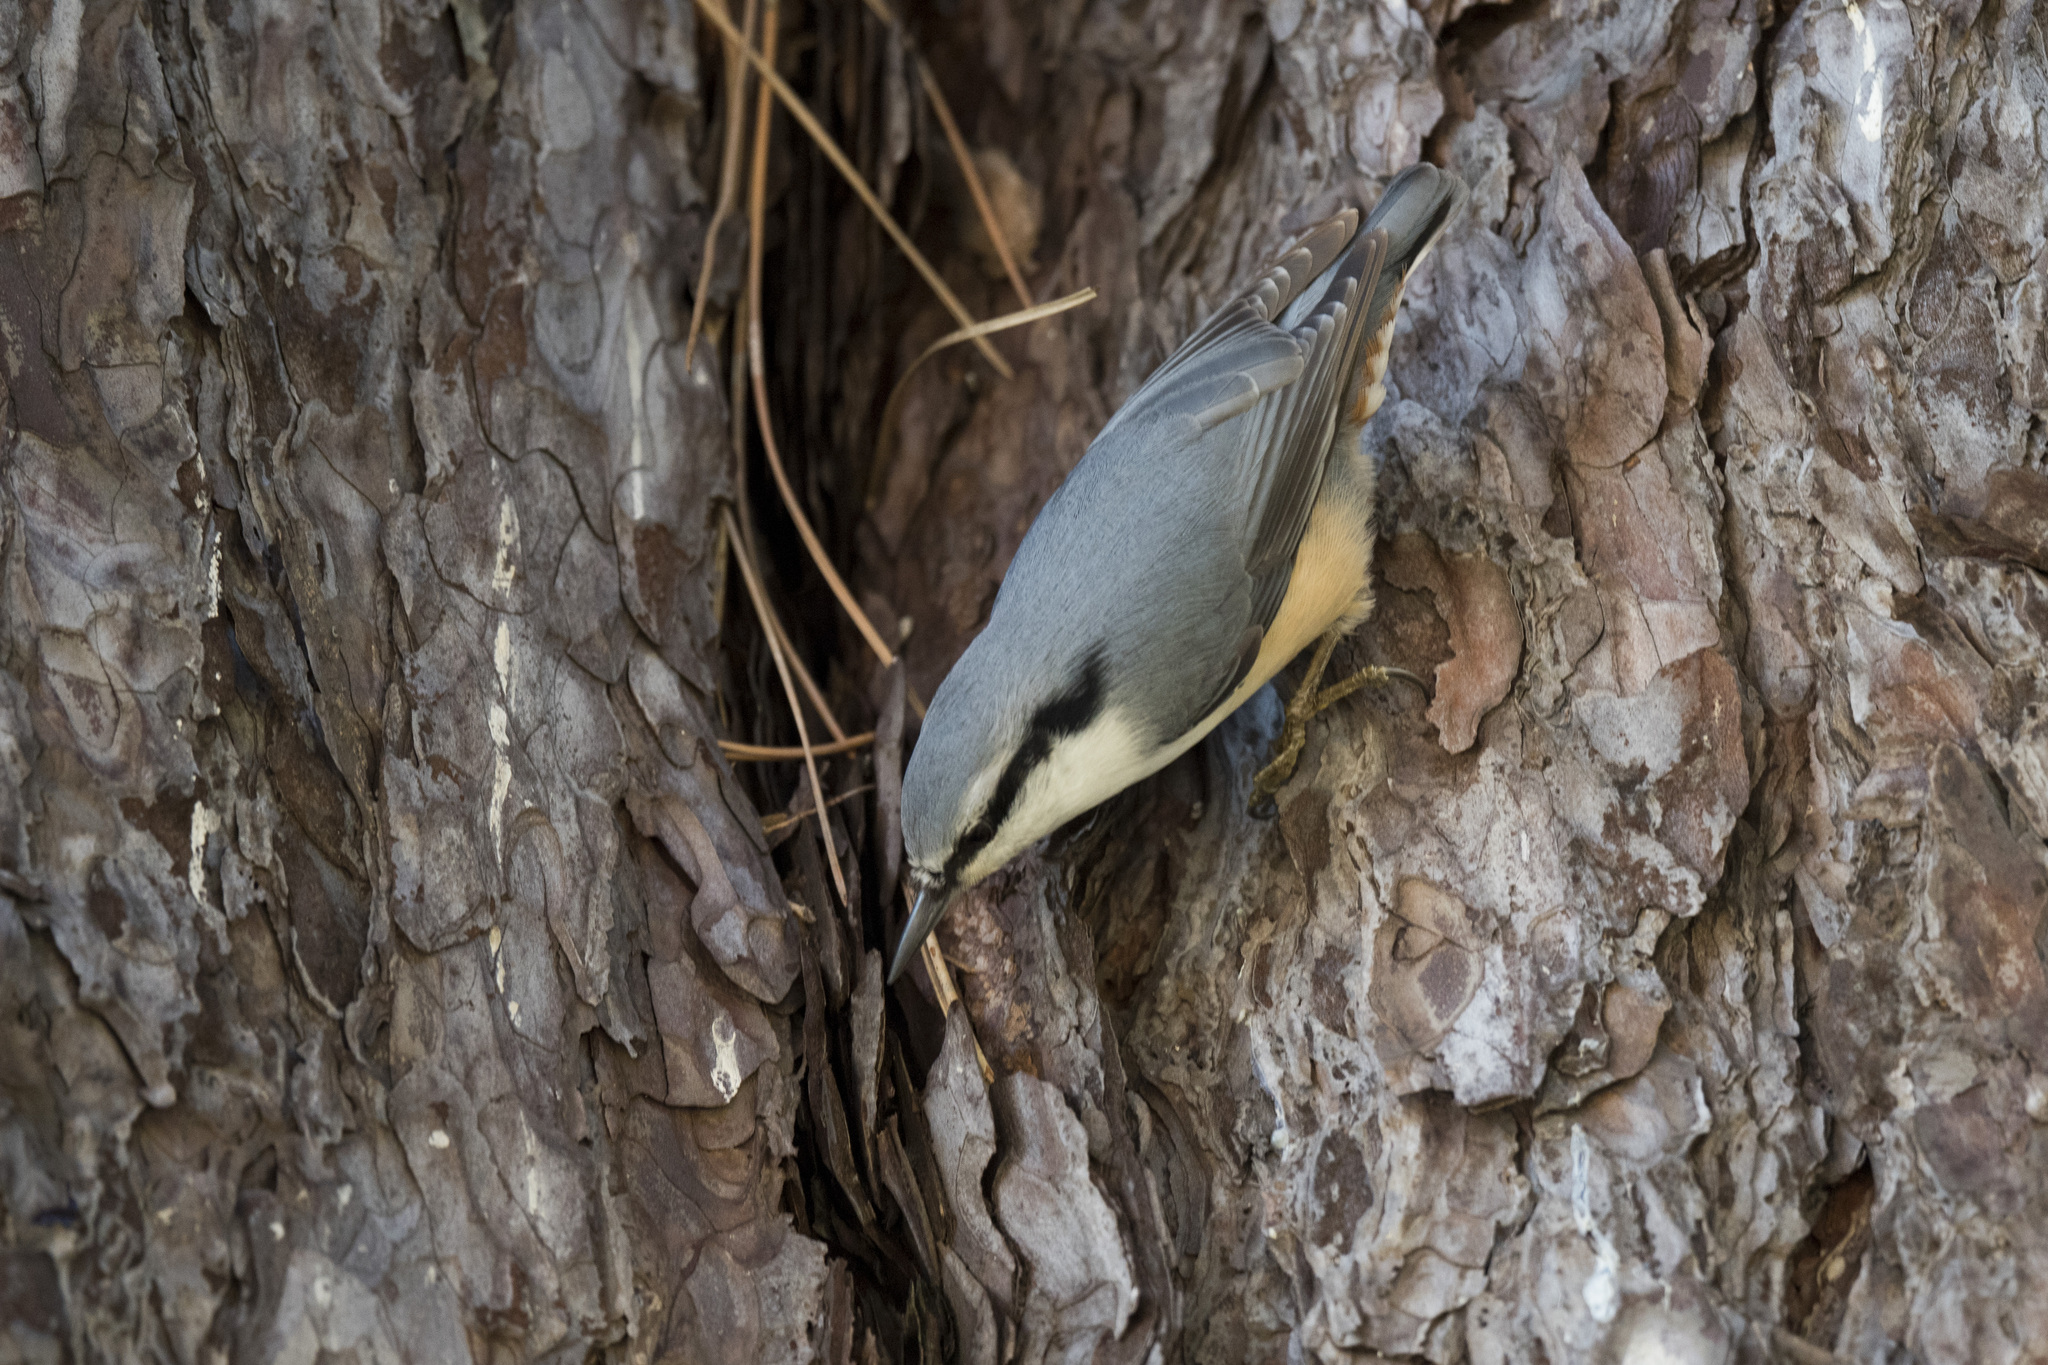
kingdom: Animalia
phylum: Chordata
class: Aves
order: Passeriformes
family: Sittidae
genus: Sitta
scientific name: Sitta europaea
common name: Eurasian nuthatch
